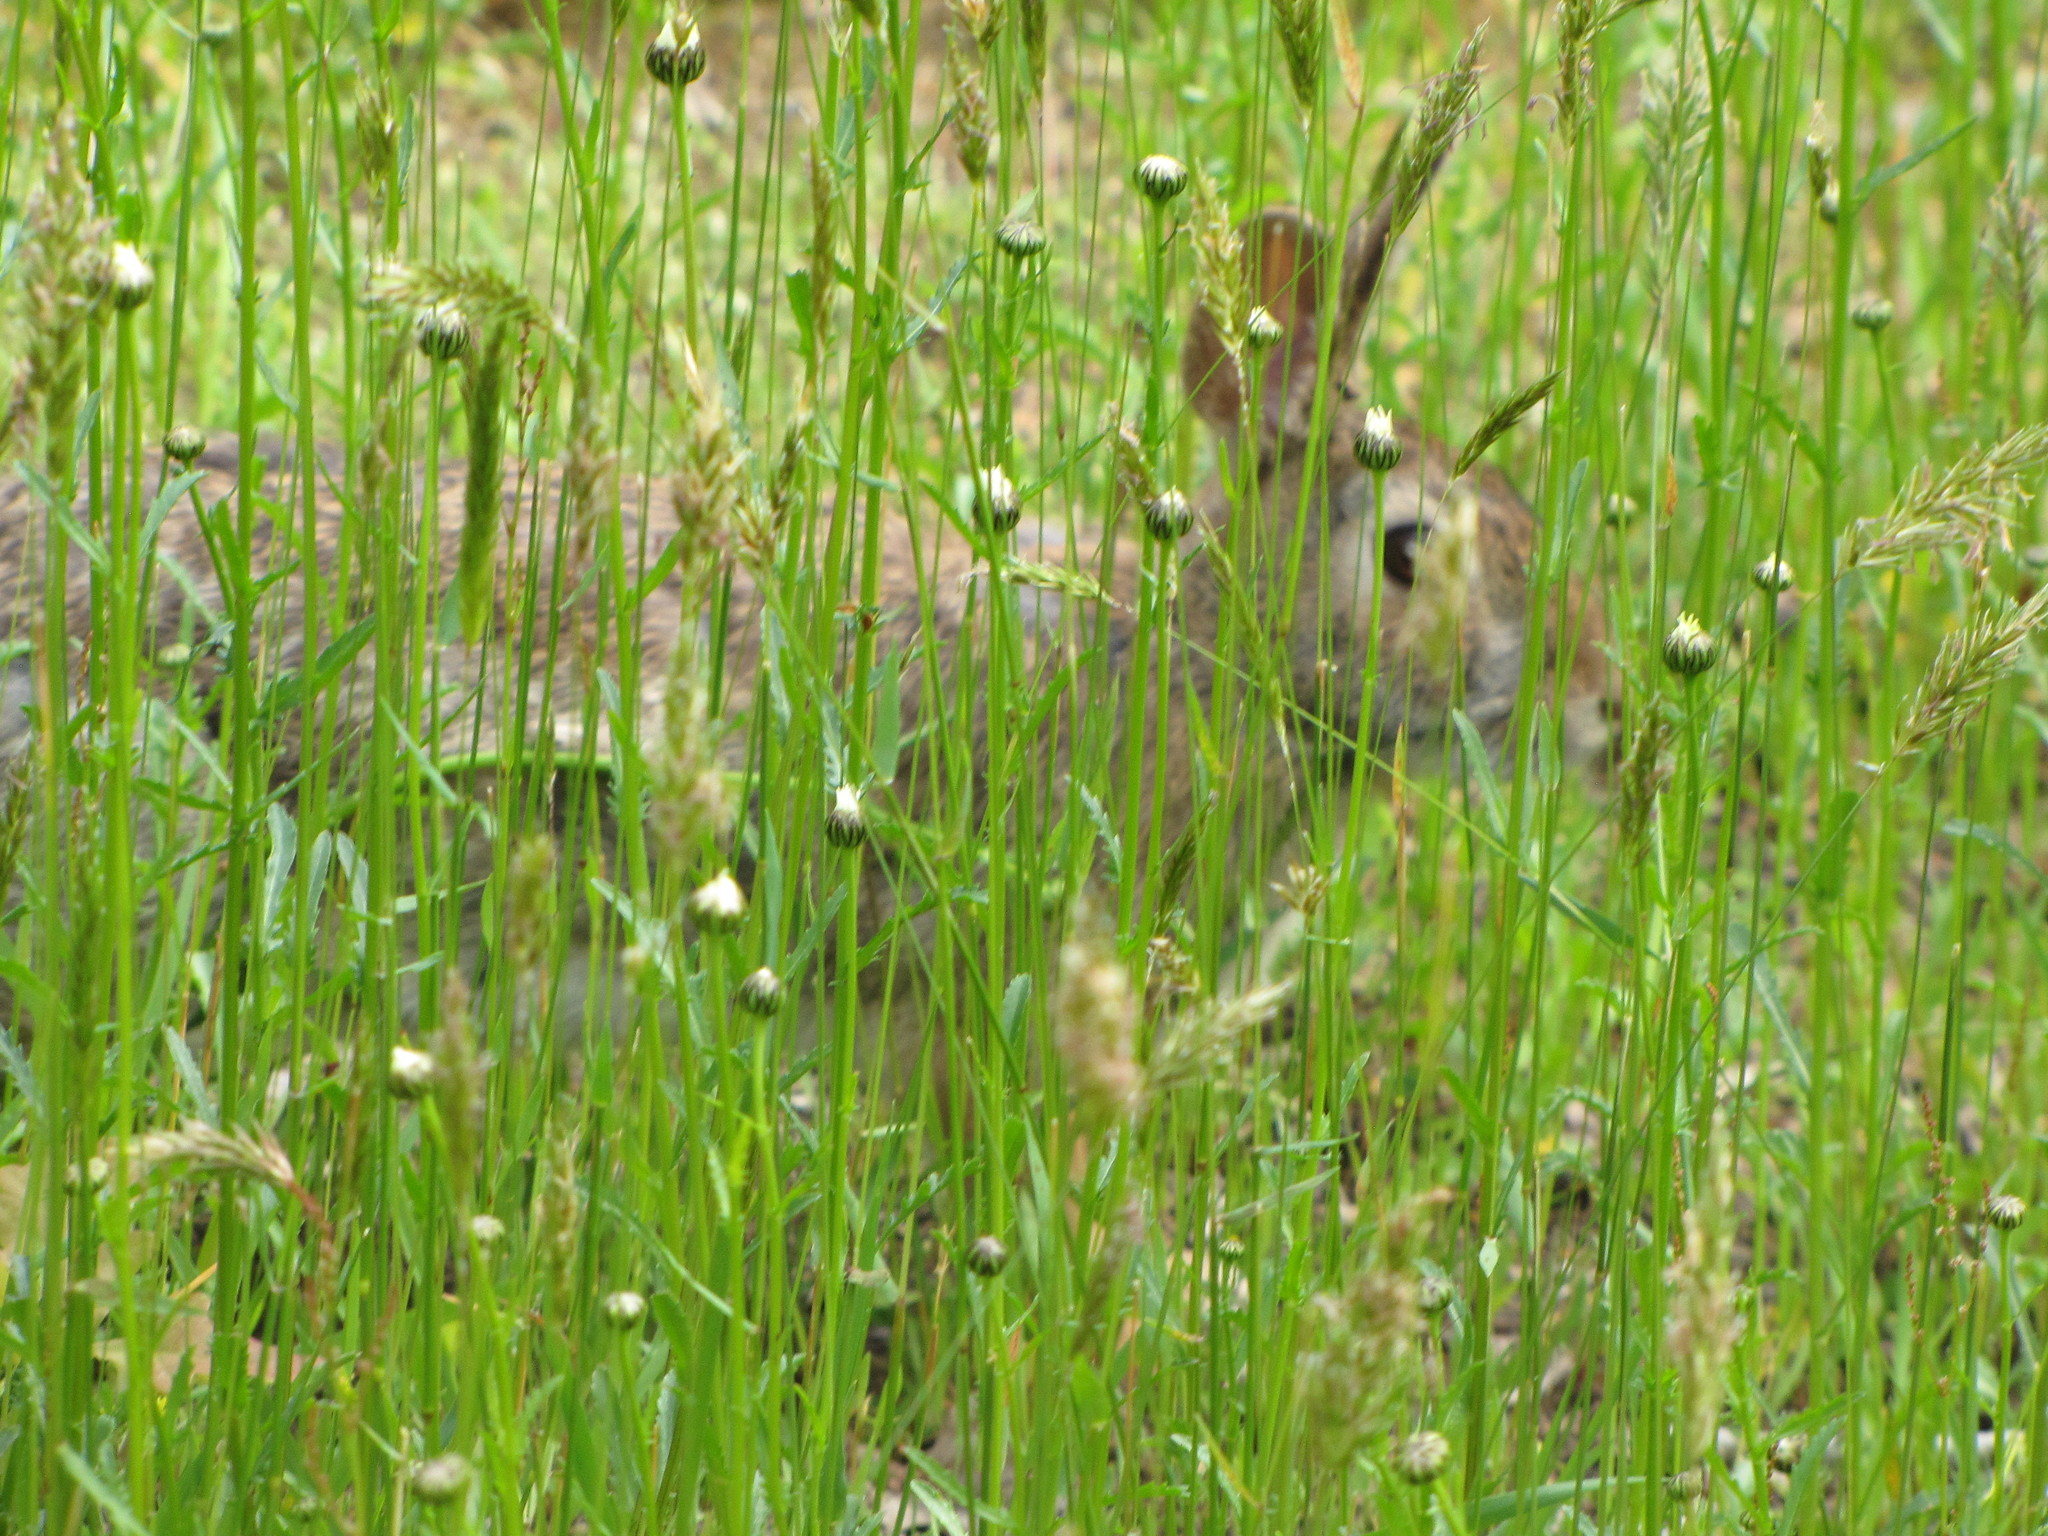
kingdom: Animalia
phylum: Chordata
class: Mammalia
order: Lagomorpha
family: Leporidae
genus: Sylvilagus
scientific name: Sylvilagus floridanus
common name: Eastern cottontail
